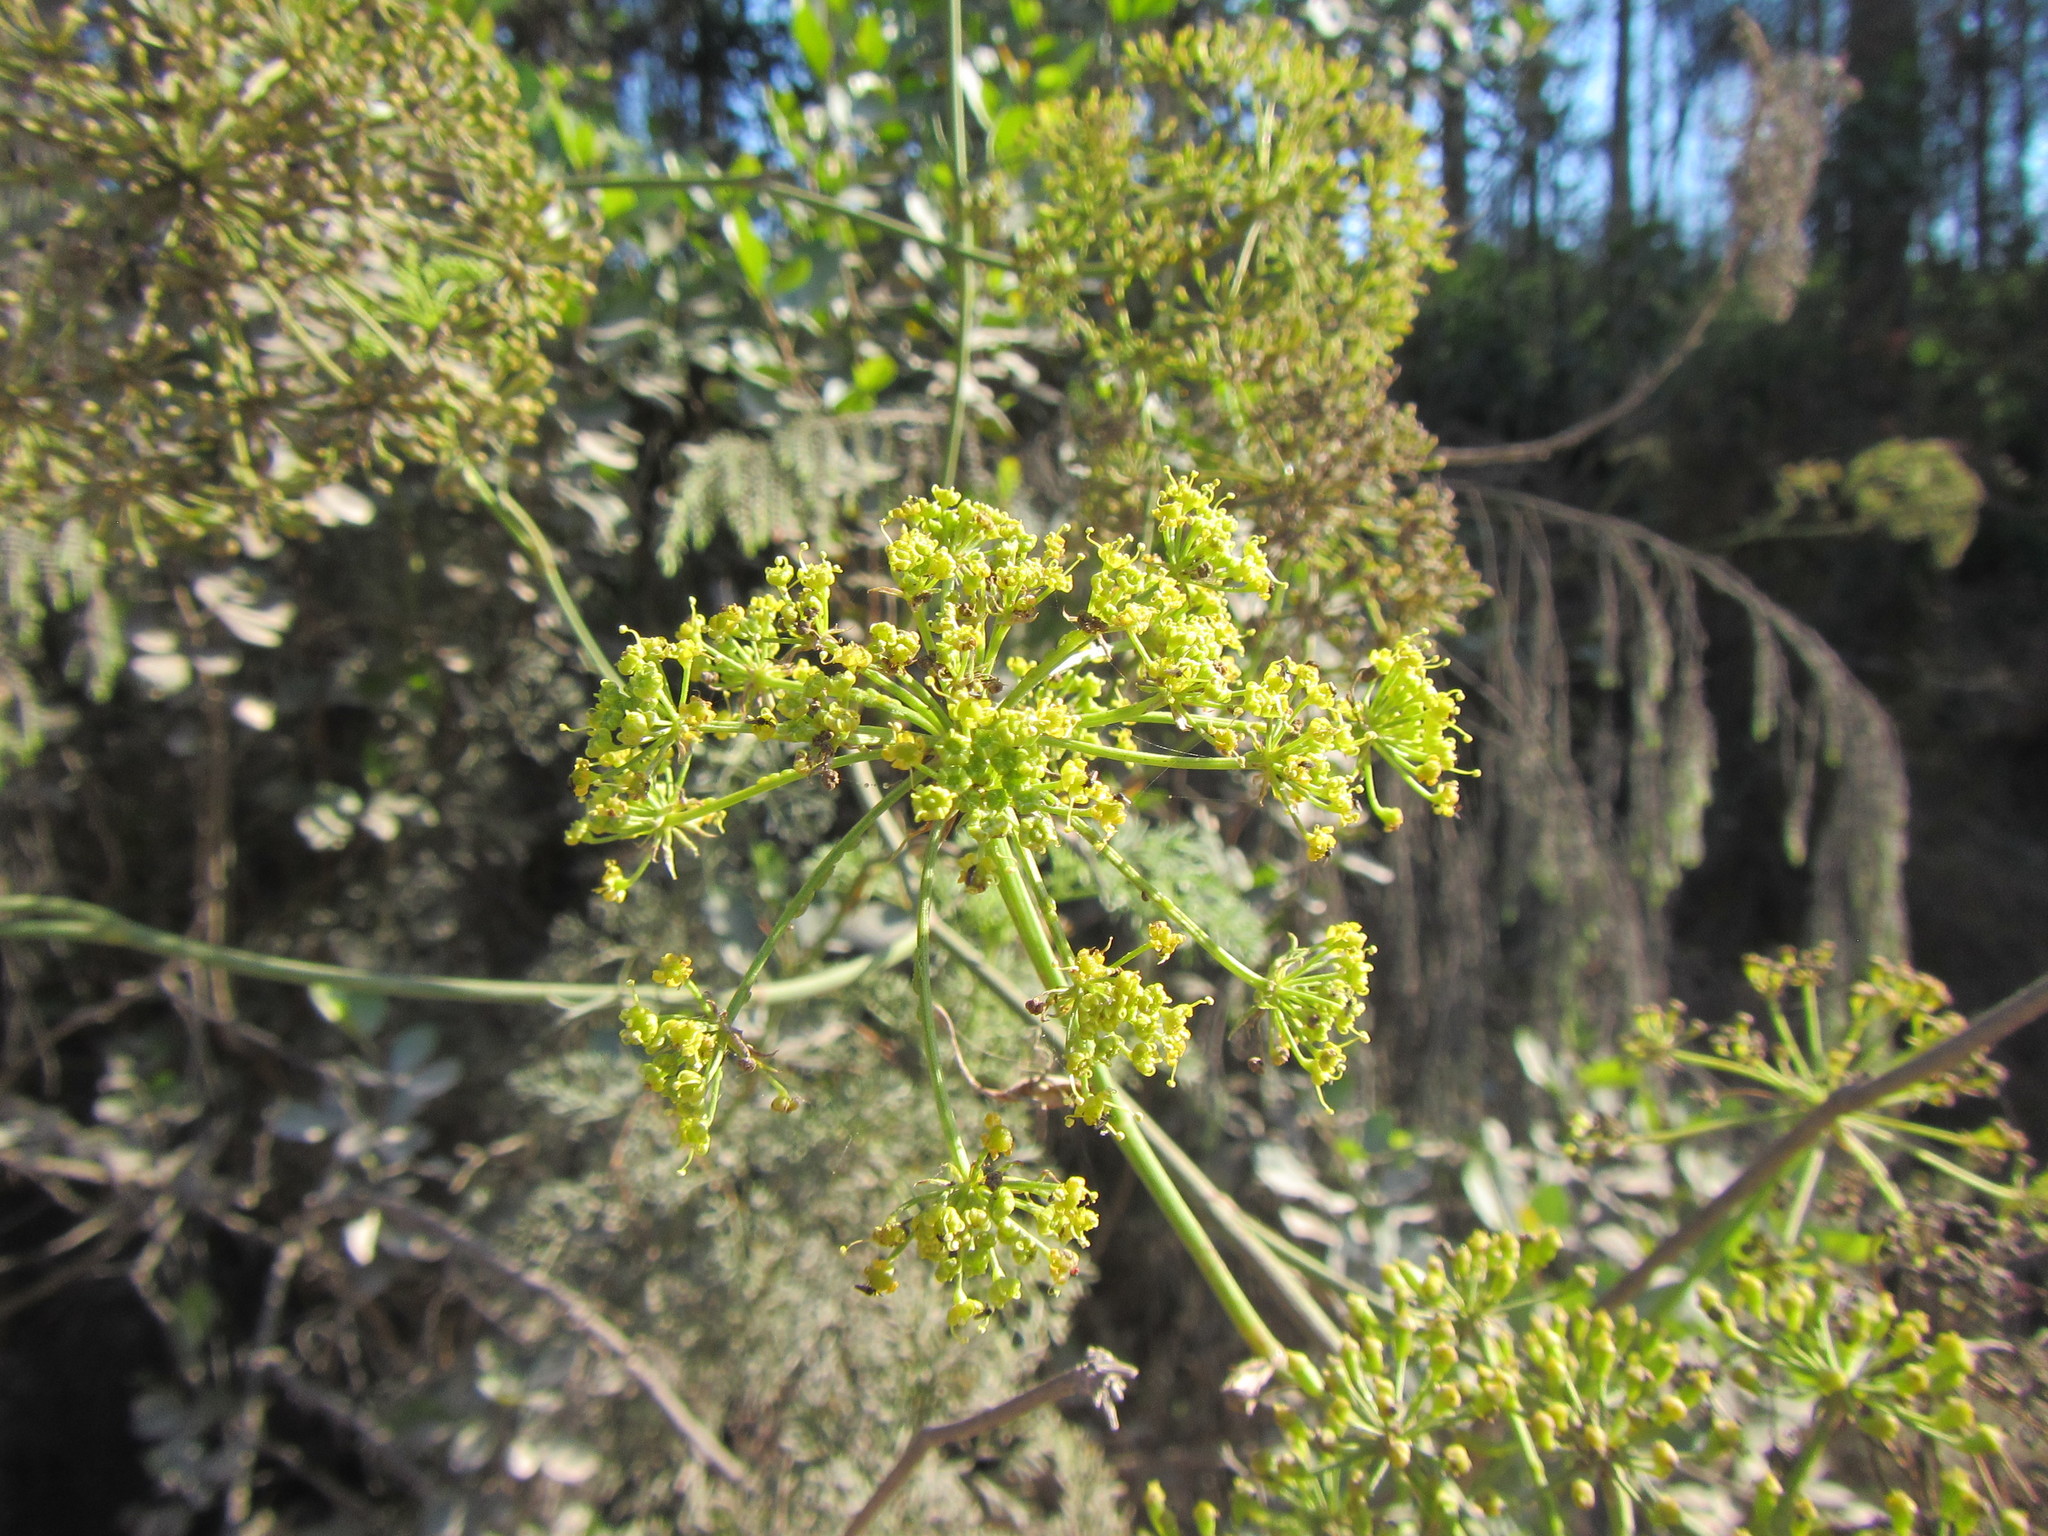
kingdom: Plantae
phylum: Tracheophyta
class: Magnoliopsida
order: Apiales
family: Apiaceae
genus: Notobubon
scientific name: Notobubon ferulaceum
